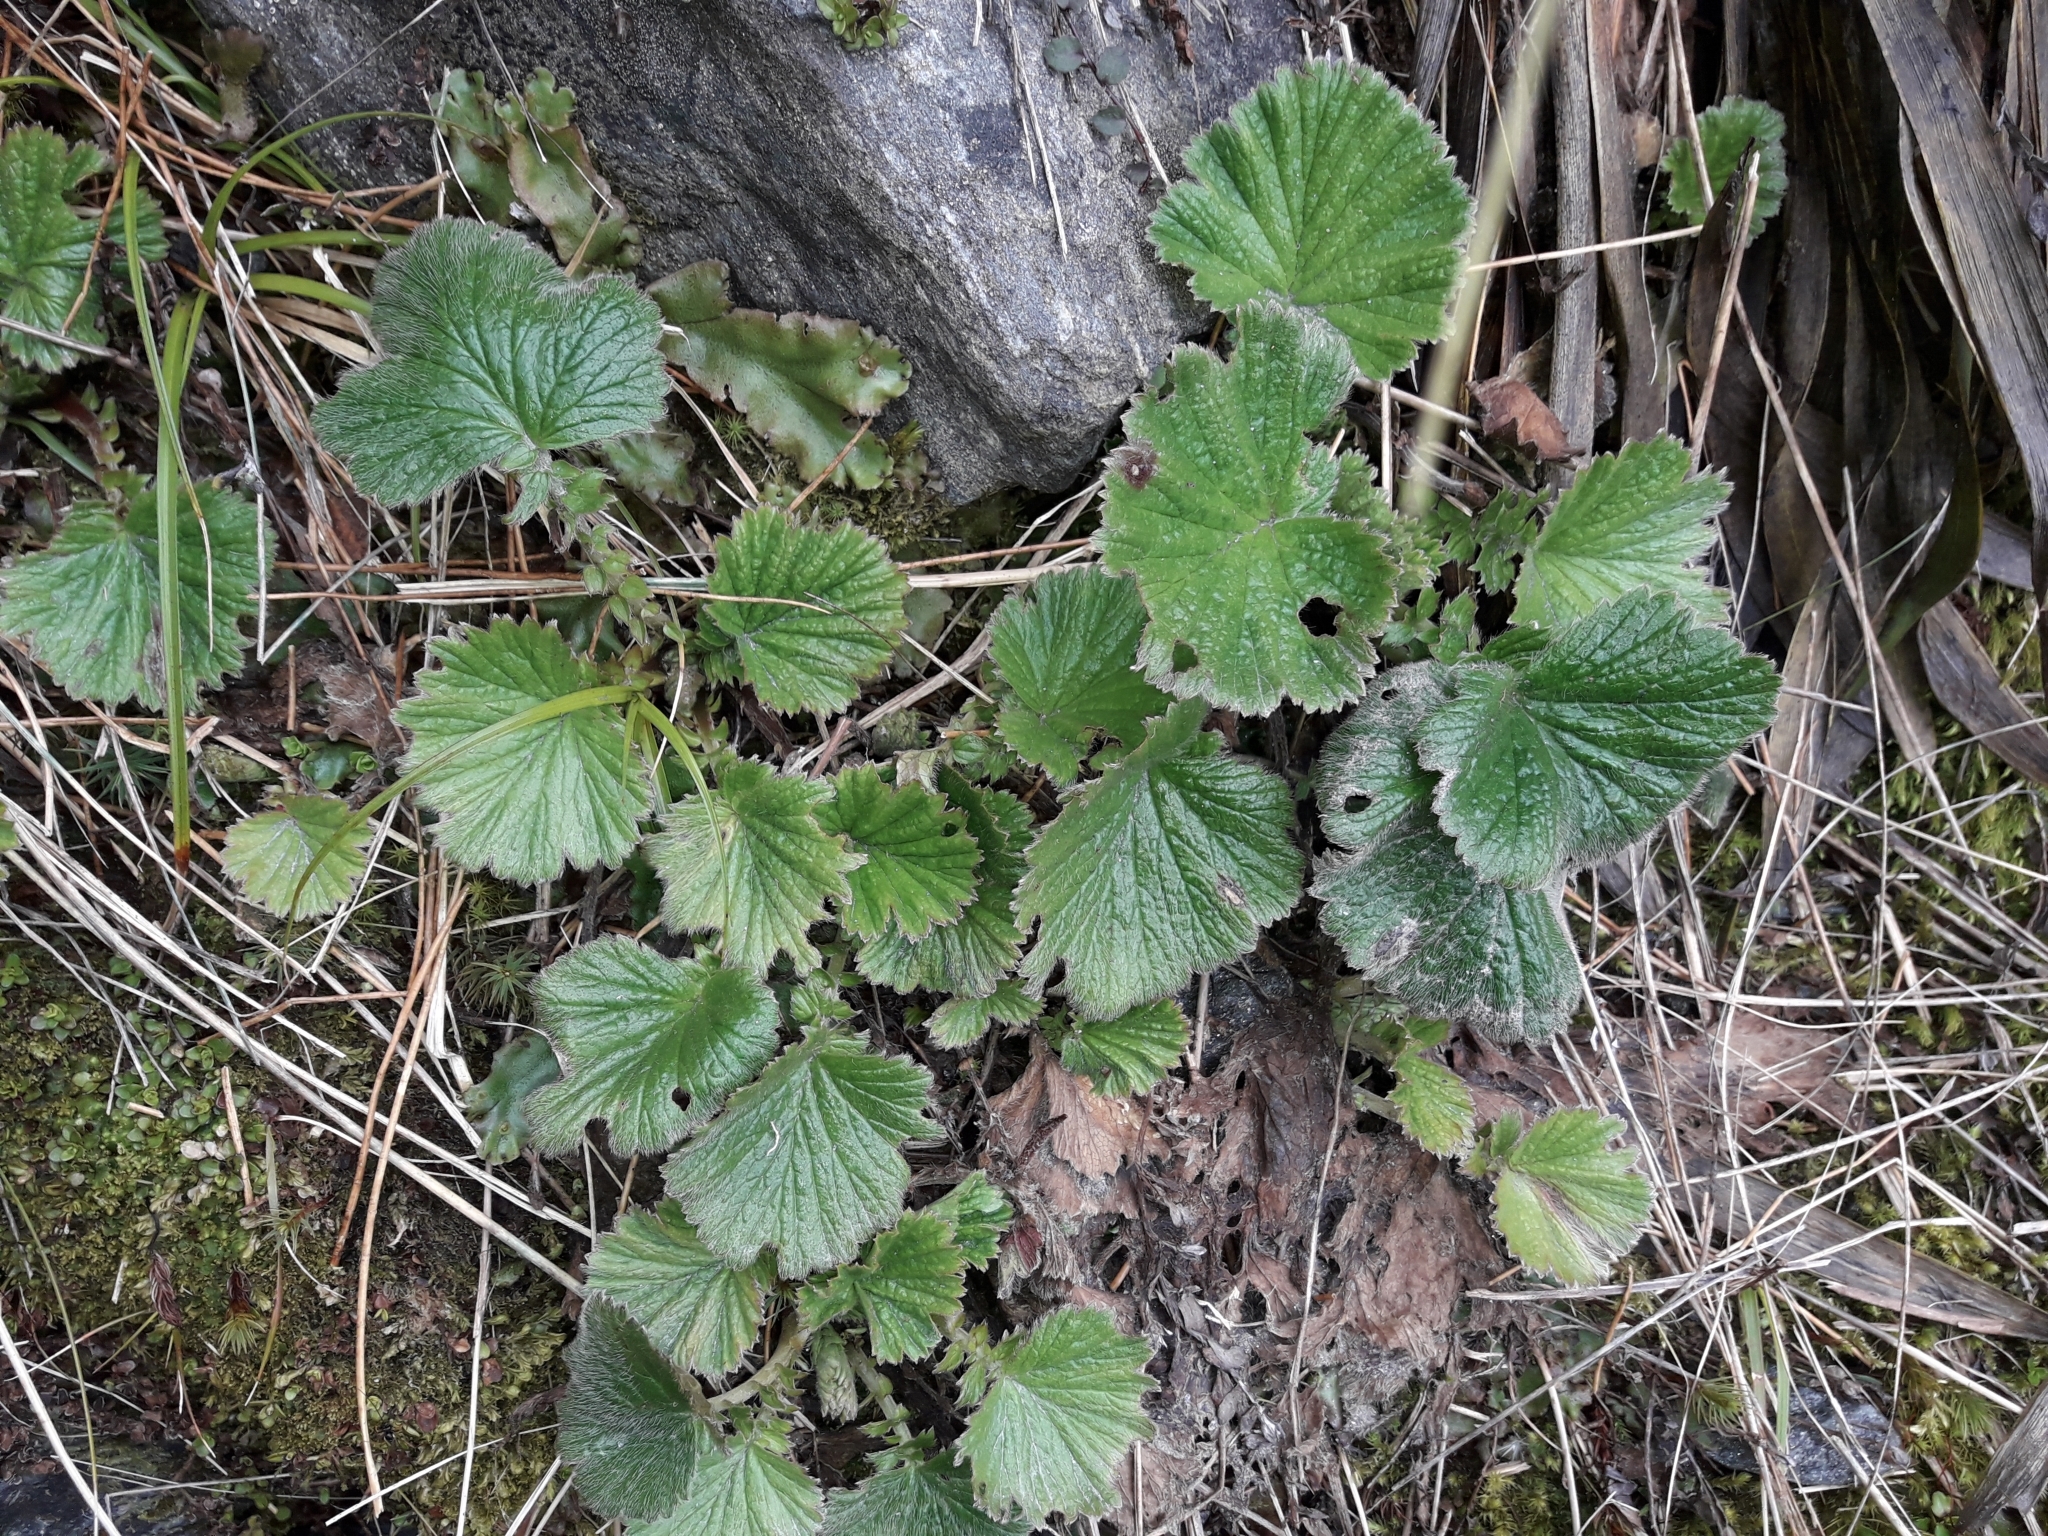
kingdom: Plantae
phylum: Tracheophyta
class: Magnoliopsida
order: Rosales
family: Rosaceae
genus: Geum
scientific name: Geum cockaynei
